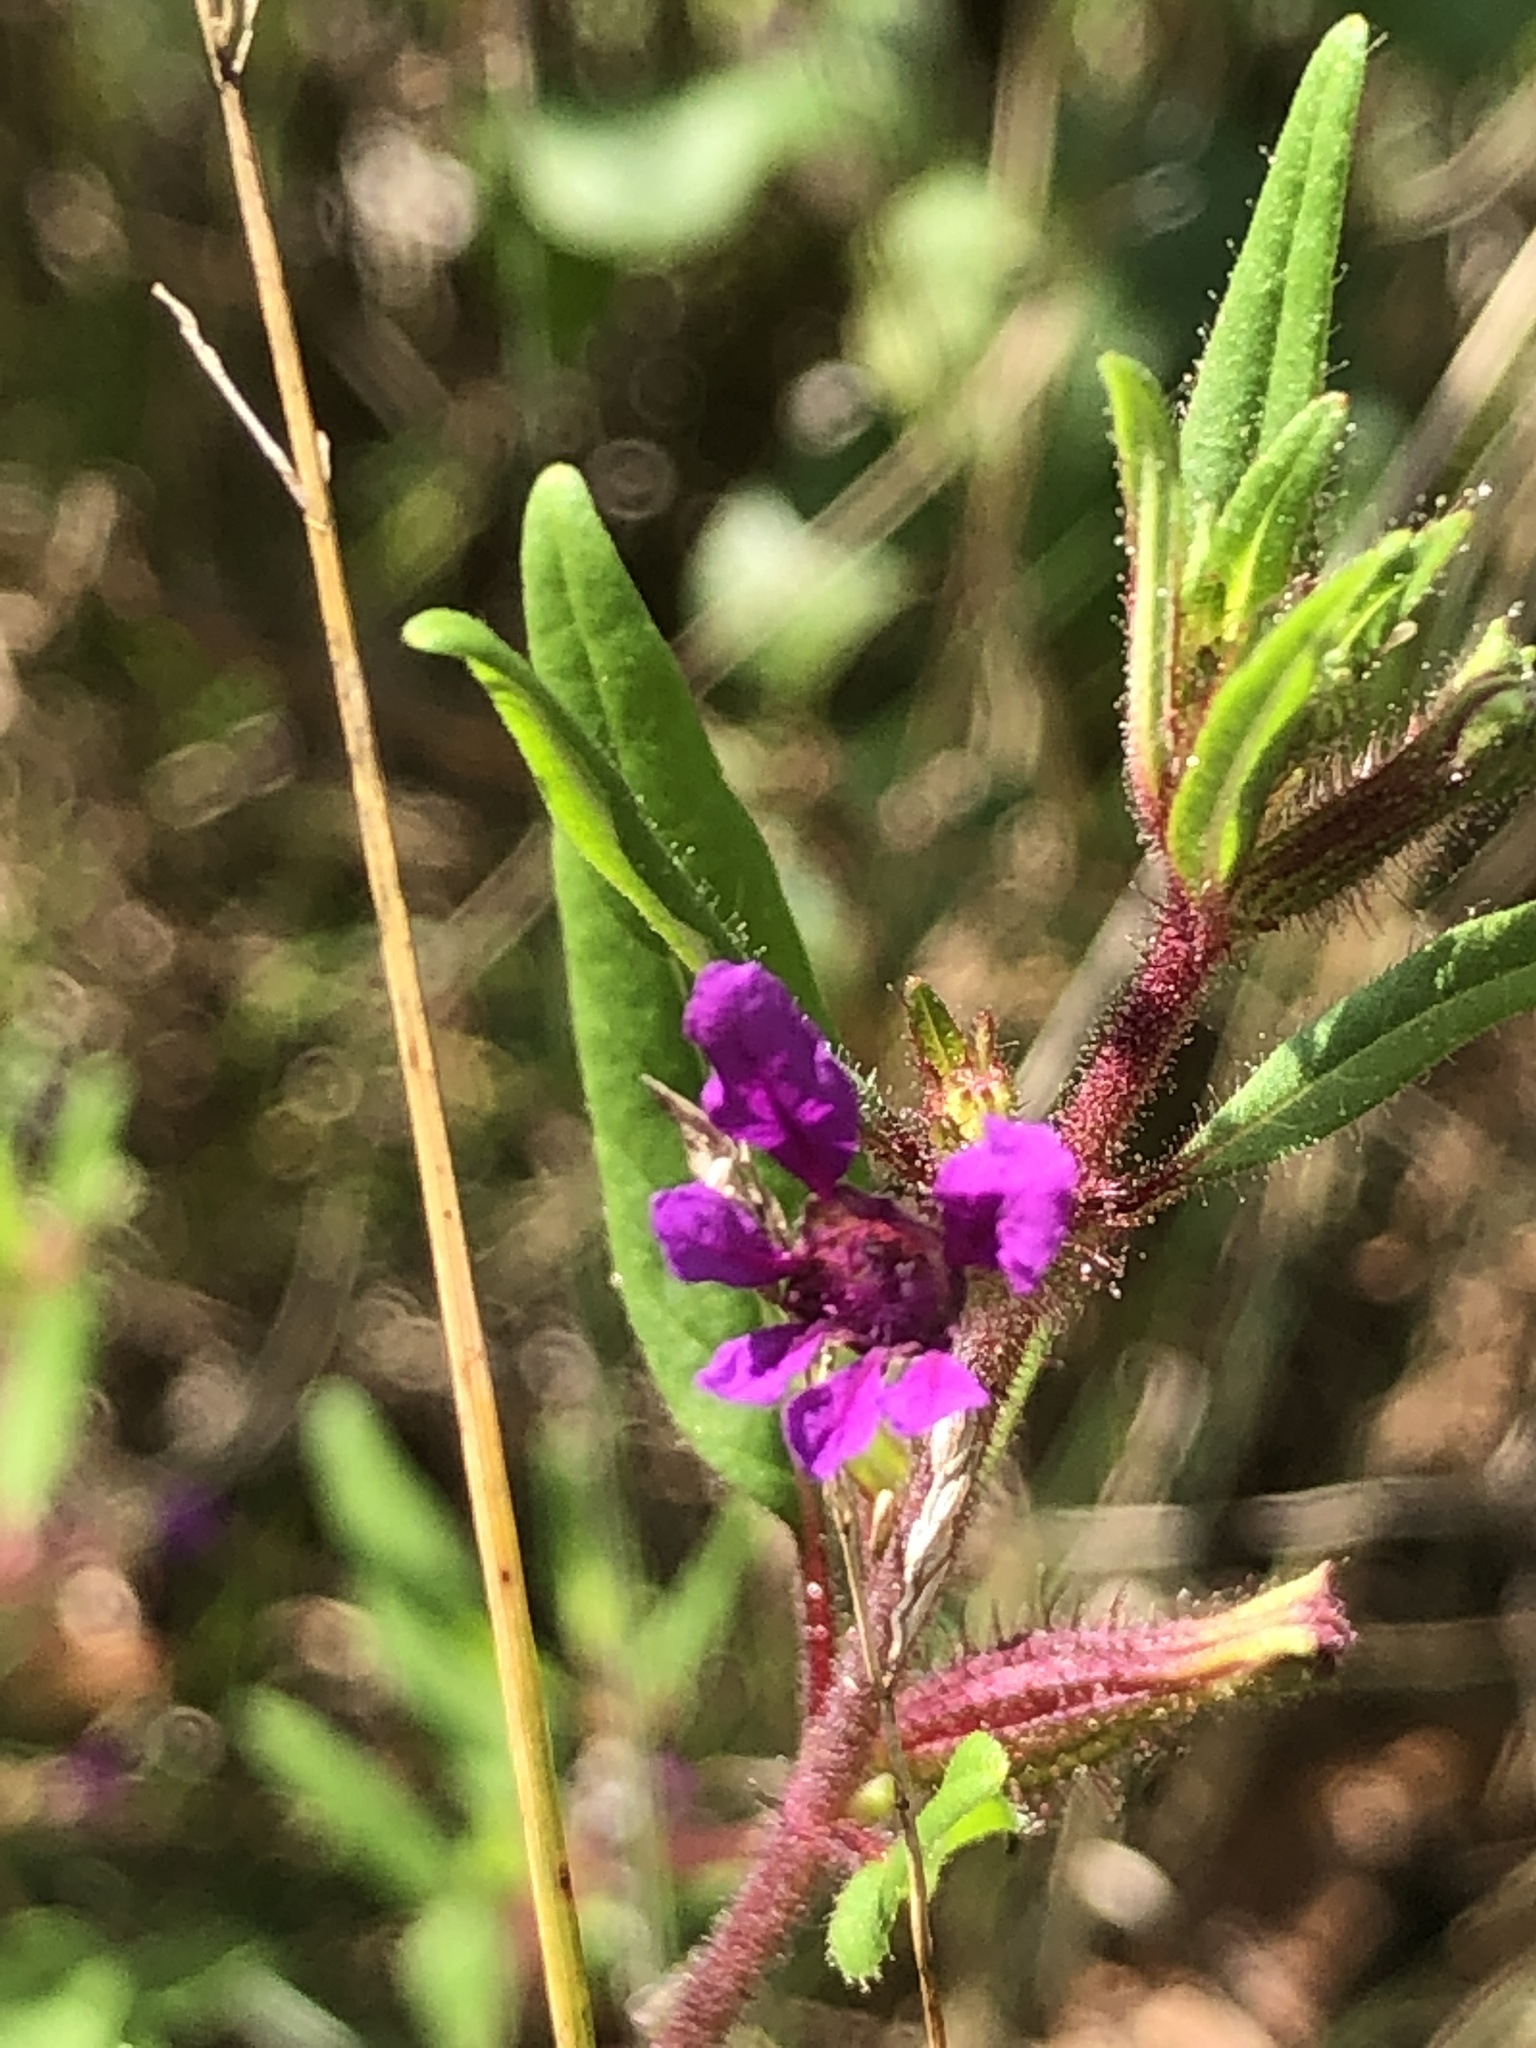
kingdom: Plantae
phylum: Tracheophyta
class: Magnoliopsida
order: Myrtales
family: Lythraceae
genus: Cuphea
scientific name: Cuphea viscosissima
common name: Clammy cuphea
